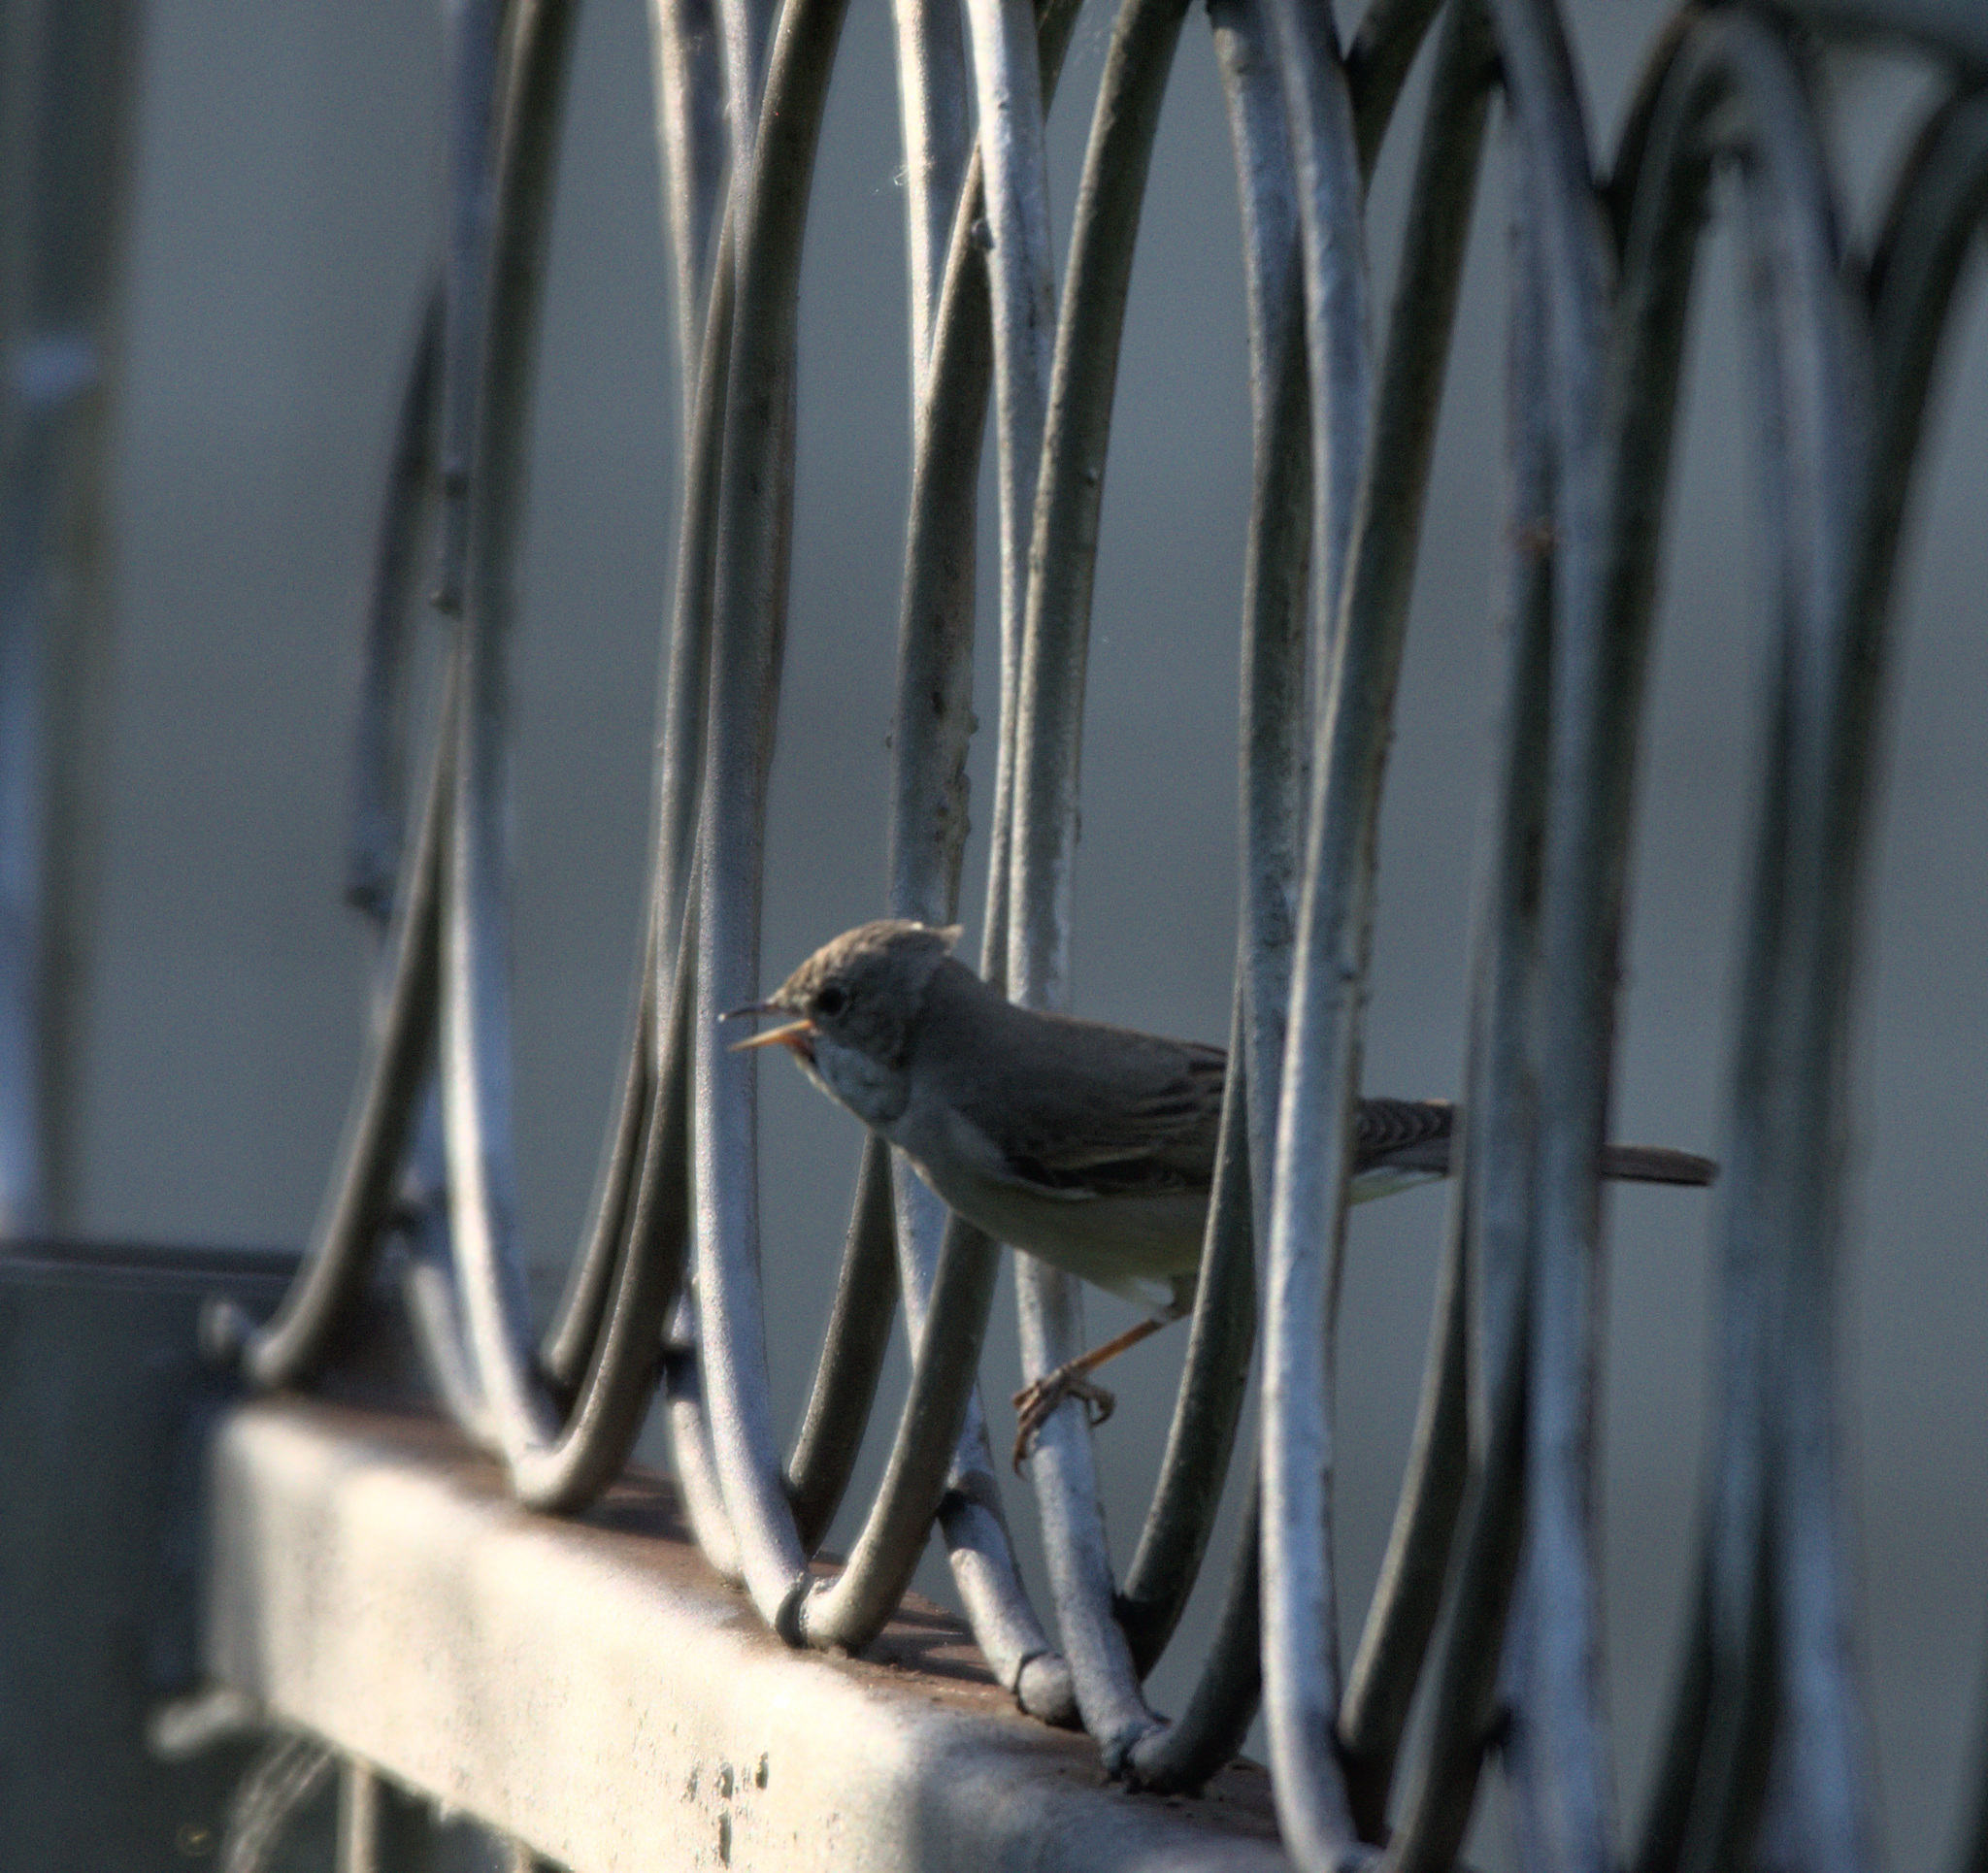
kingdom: Animalia
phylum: Chordata
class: Aves
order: Passeriformes
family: Sylviidae
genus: Sylvia
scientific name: Sylvia communis
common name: Common whitethroat
